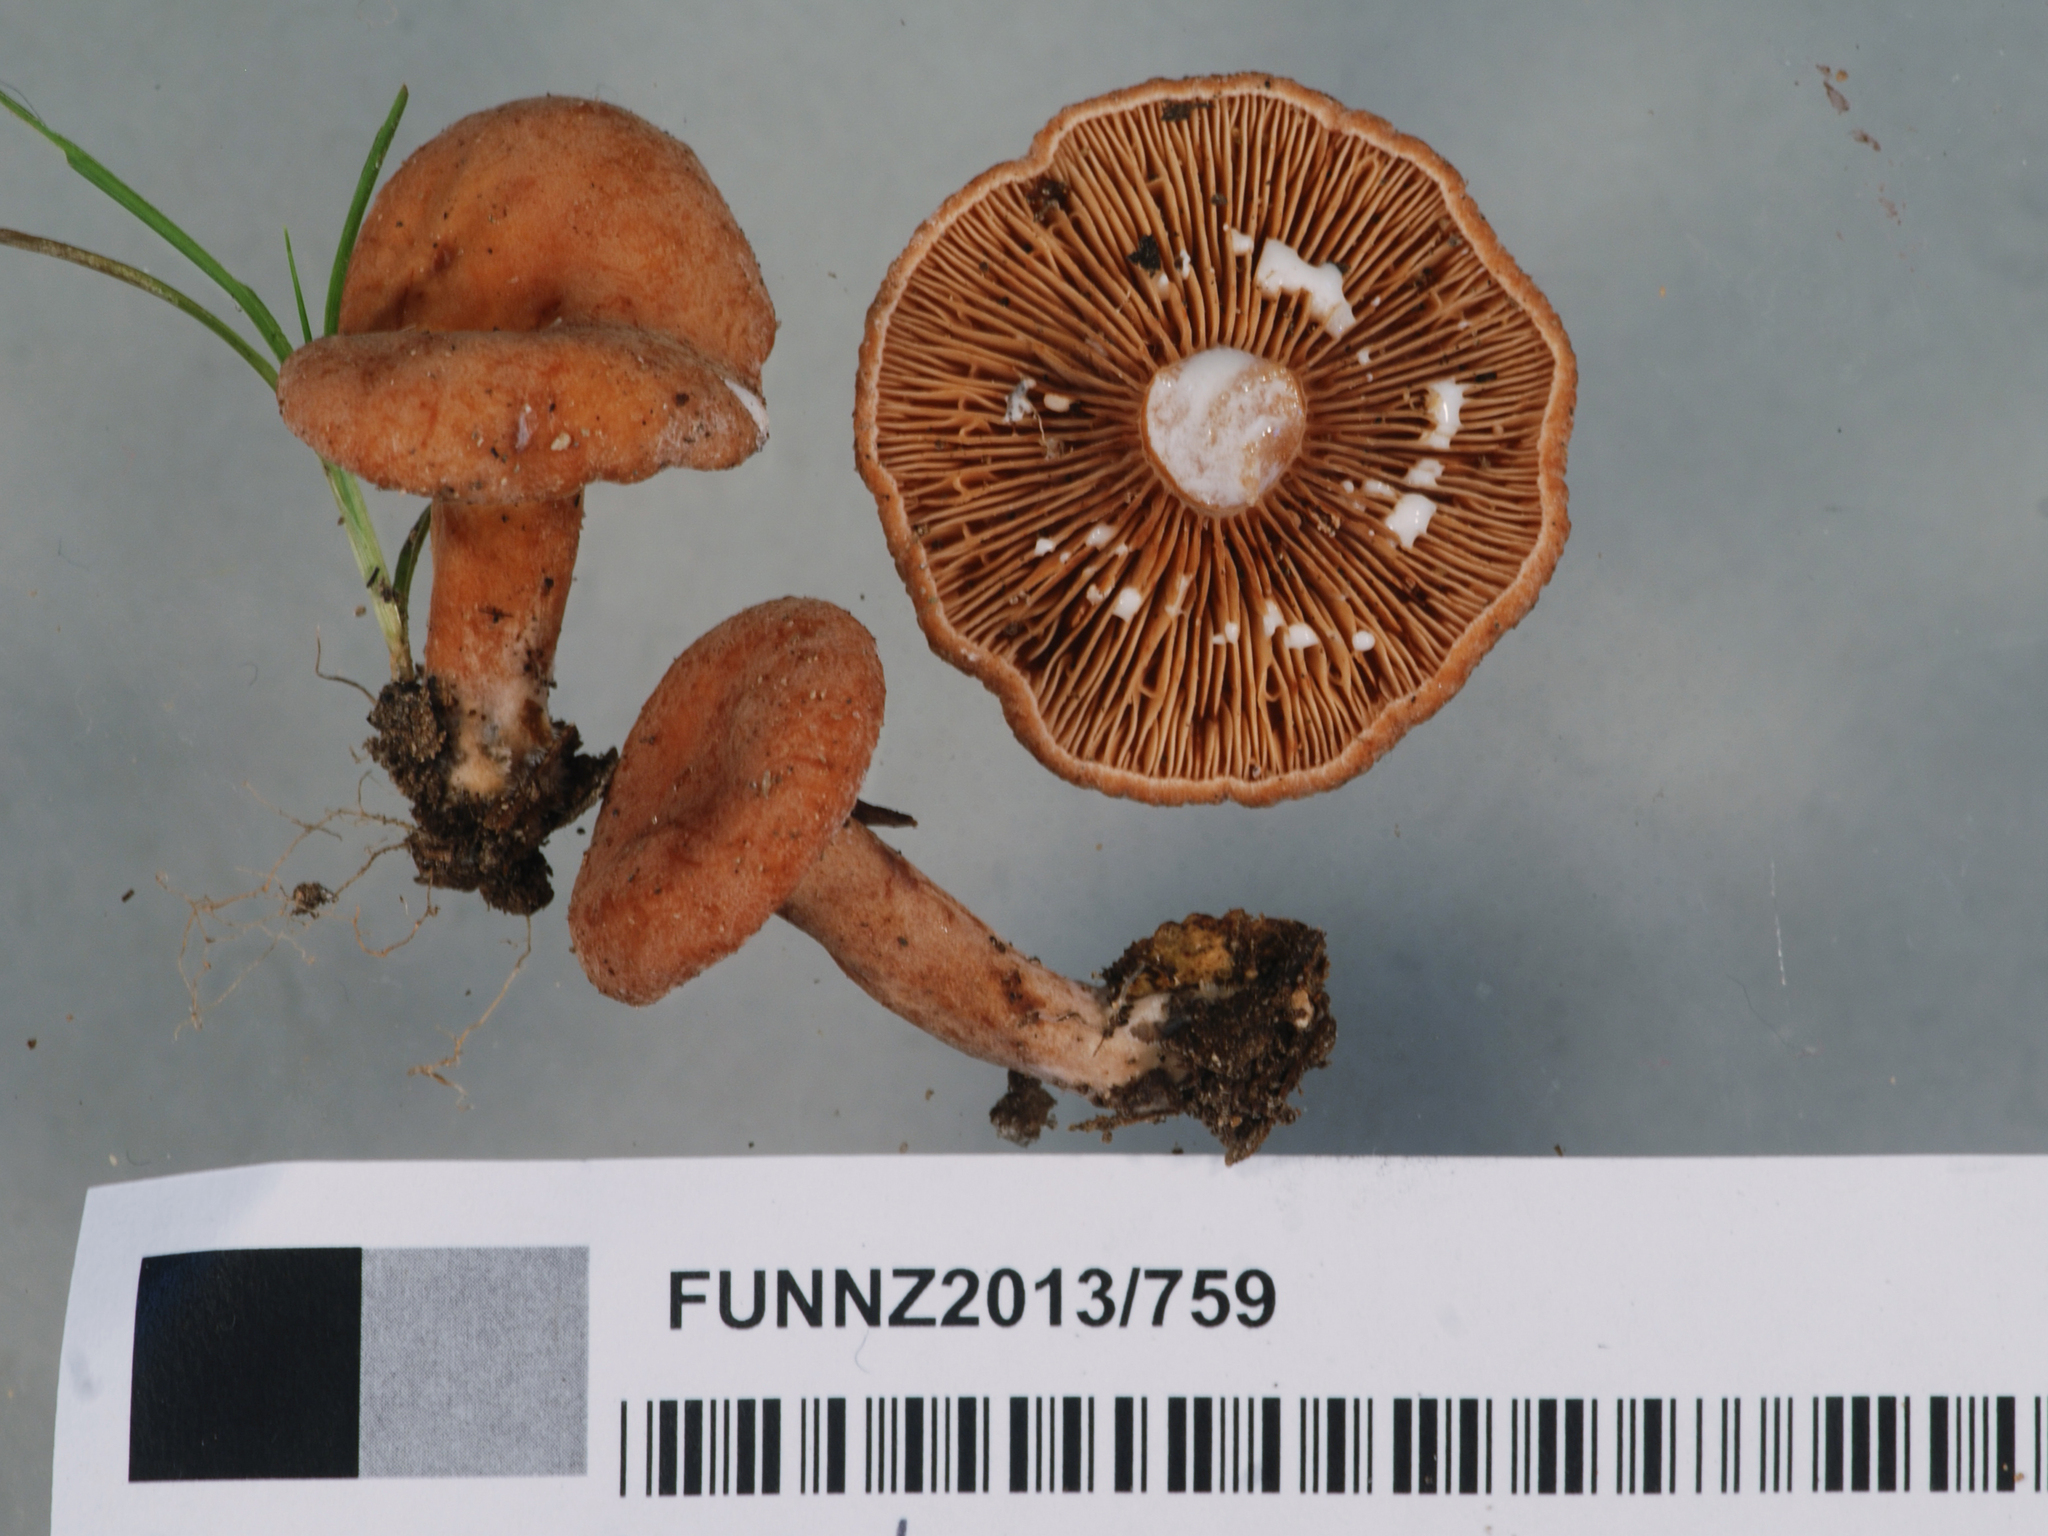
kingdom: Fungi
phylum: Basidiomycota
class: Agaricomycetes
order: Russulales
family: Russulaceae
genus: Lactarius
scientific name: Lactarius umerensis
